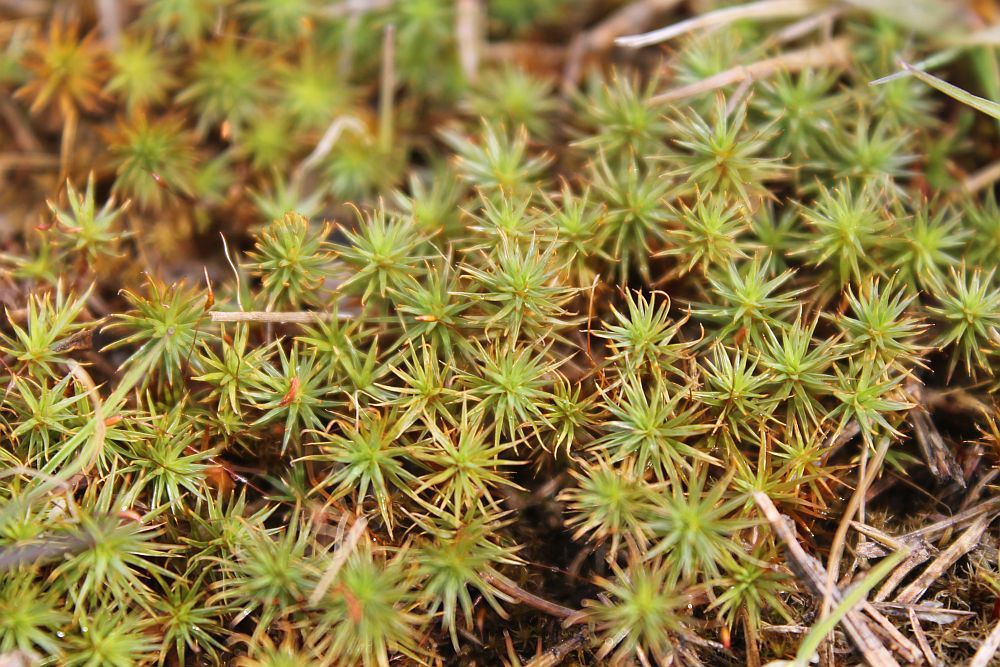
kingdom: Plantae
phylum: Bryophyta
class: Polytrichopsida
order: Polytrichales
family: Polytrichaceae
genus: Polytrichum
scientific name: Polytrichum juniperinum
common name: Juniper haircap moss
